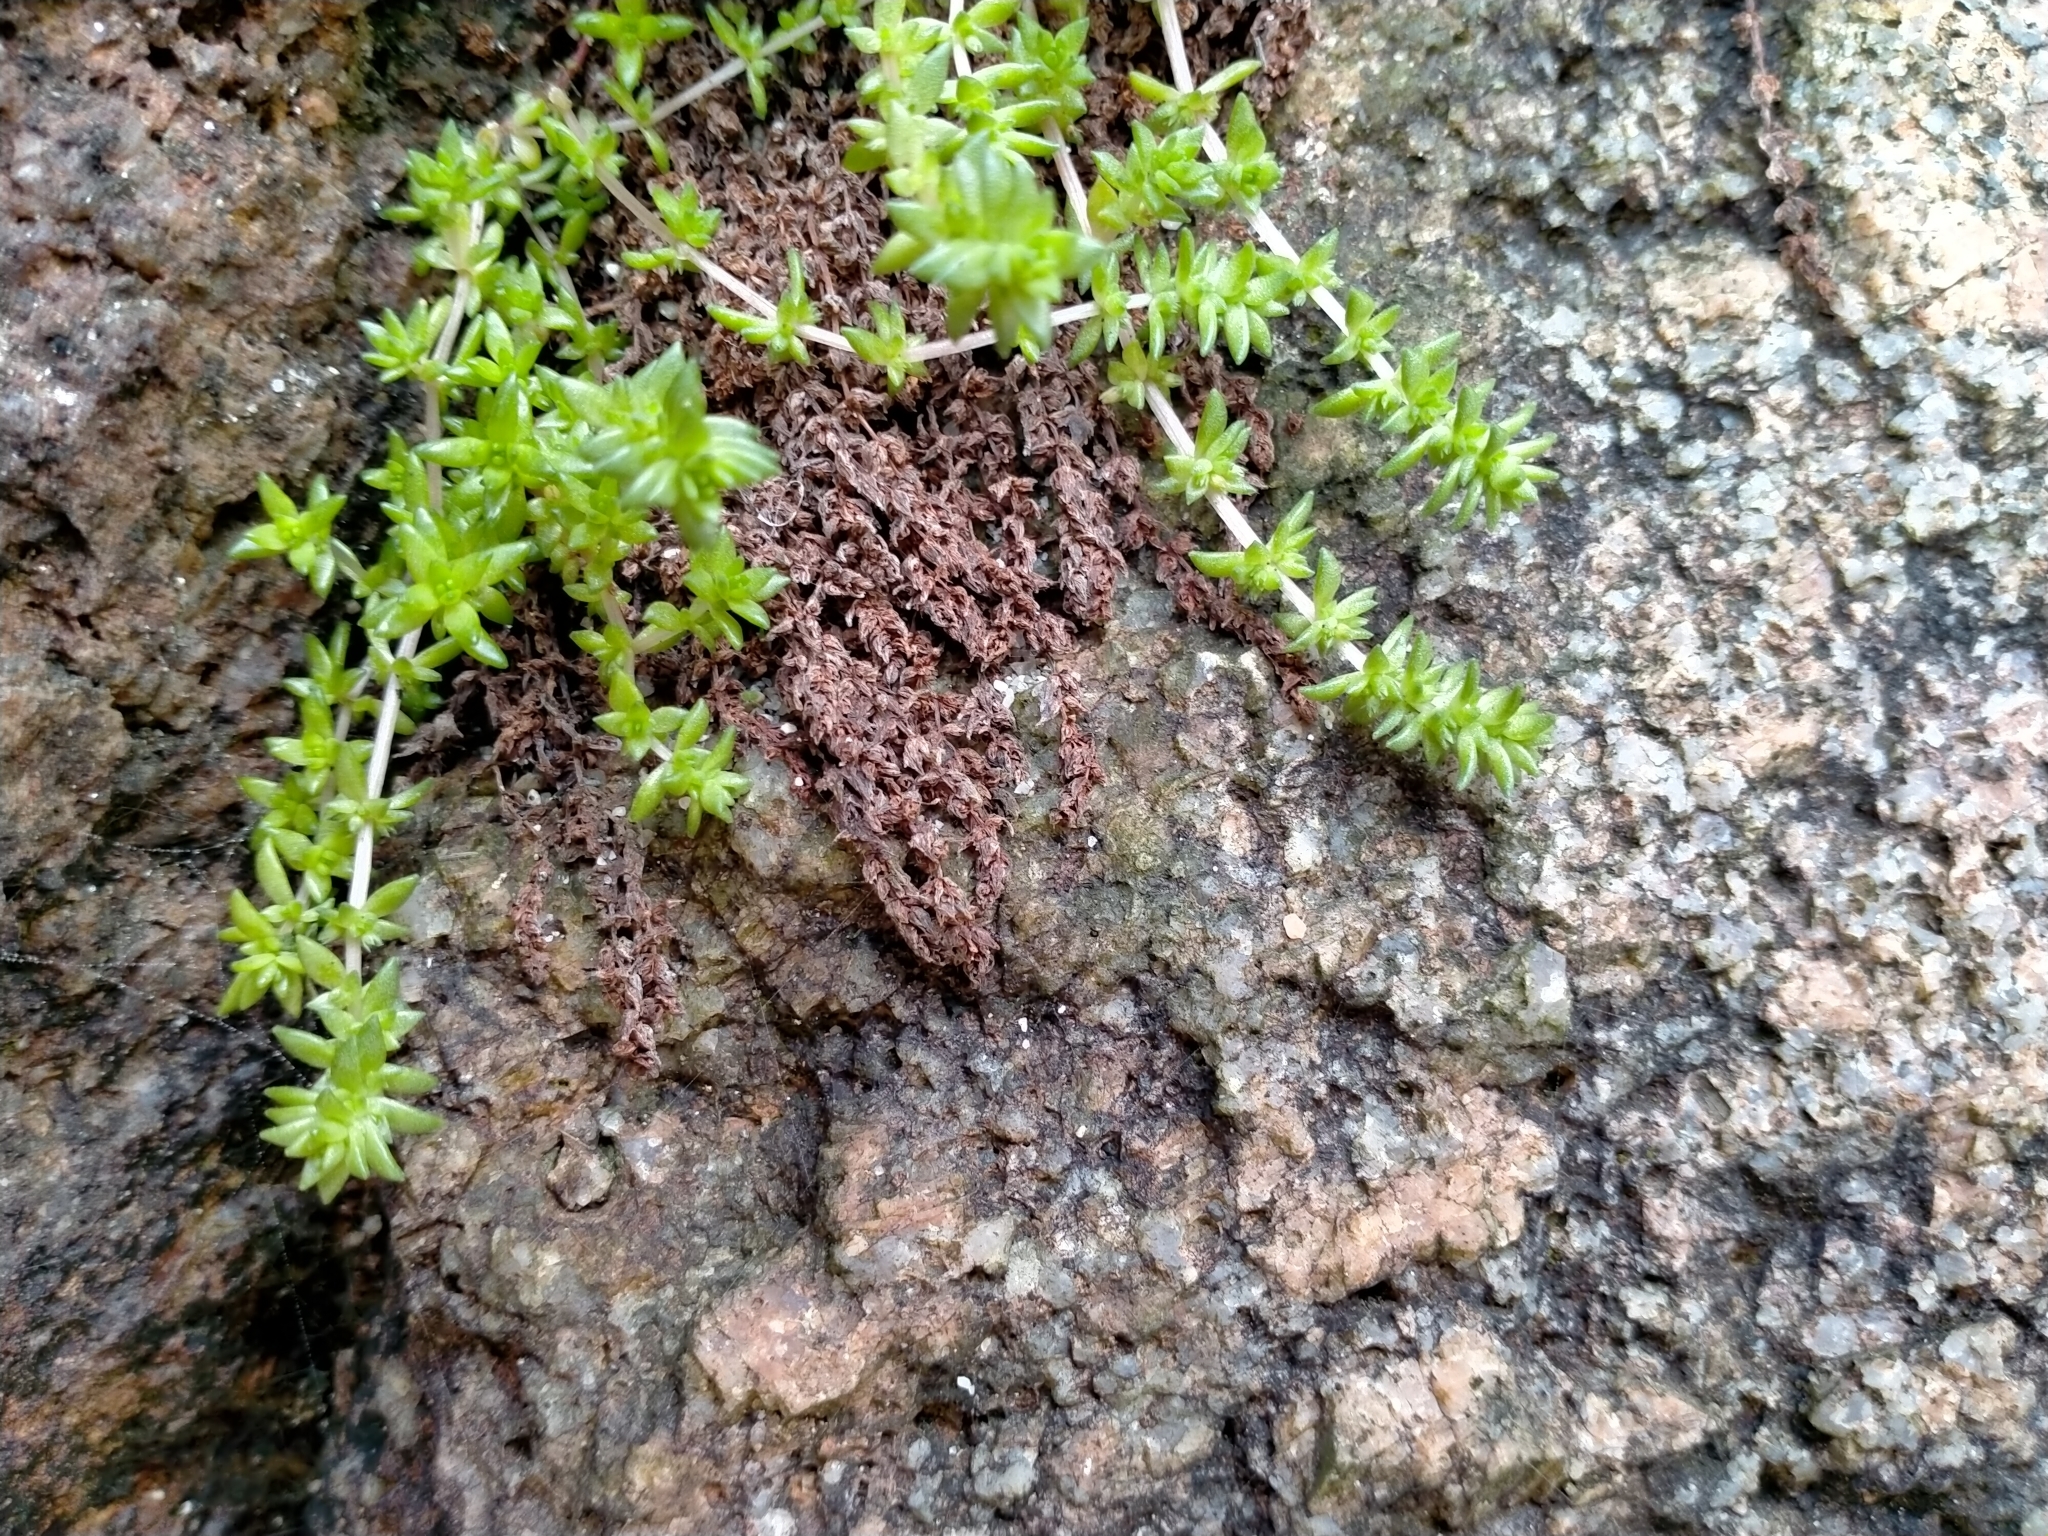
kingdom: Plantae
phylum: Tracheophyta
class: Magnoliopsida
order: Saxifragales
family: Crassulaceae
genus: Crassula
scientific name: Crassula sieberiana
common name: Siberian pygmyweed
